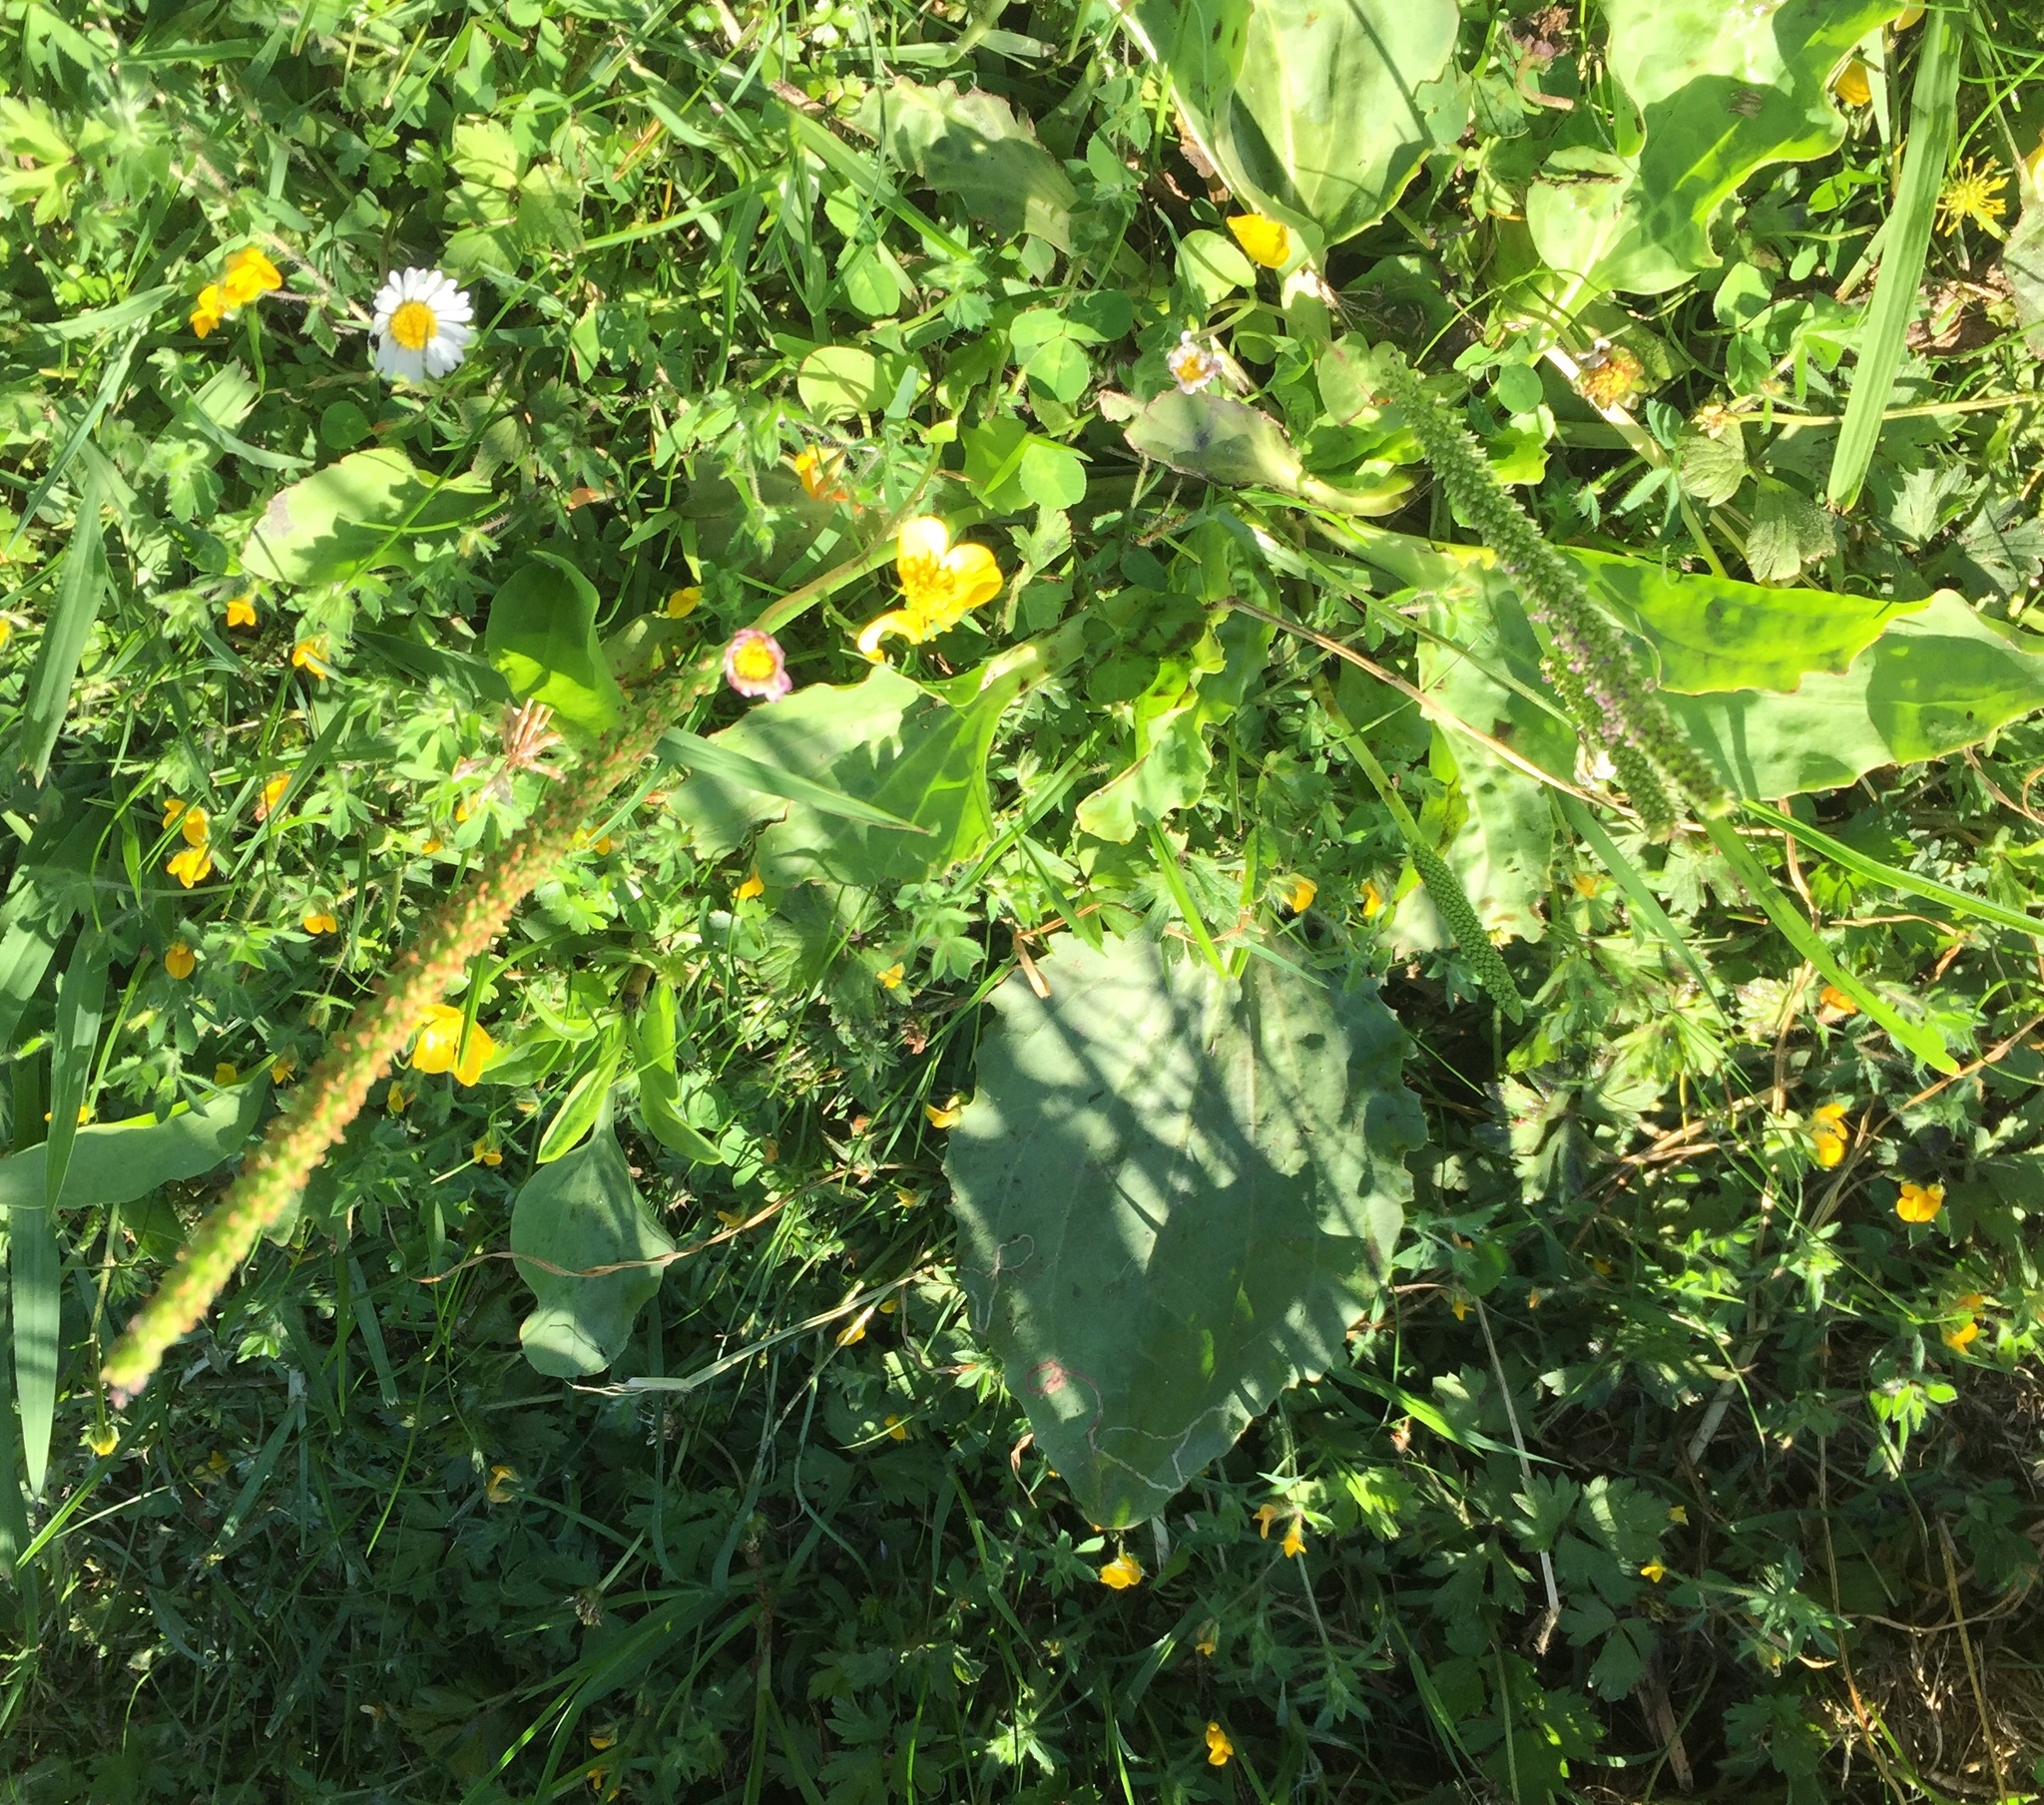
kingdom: Plantae
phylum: Tracheophyta
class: Magnoliopsida
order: Lamiales
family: Plantaginaceae
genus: Plantago
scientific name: Plantago major
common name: Common plantain
